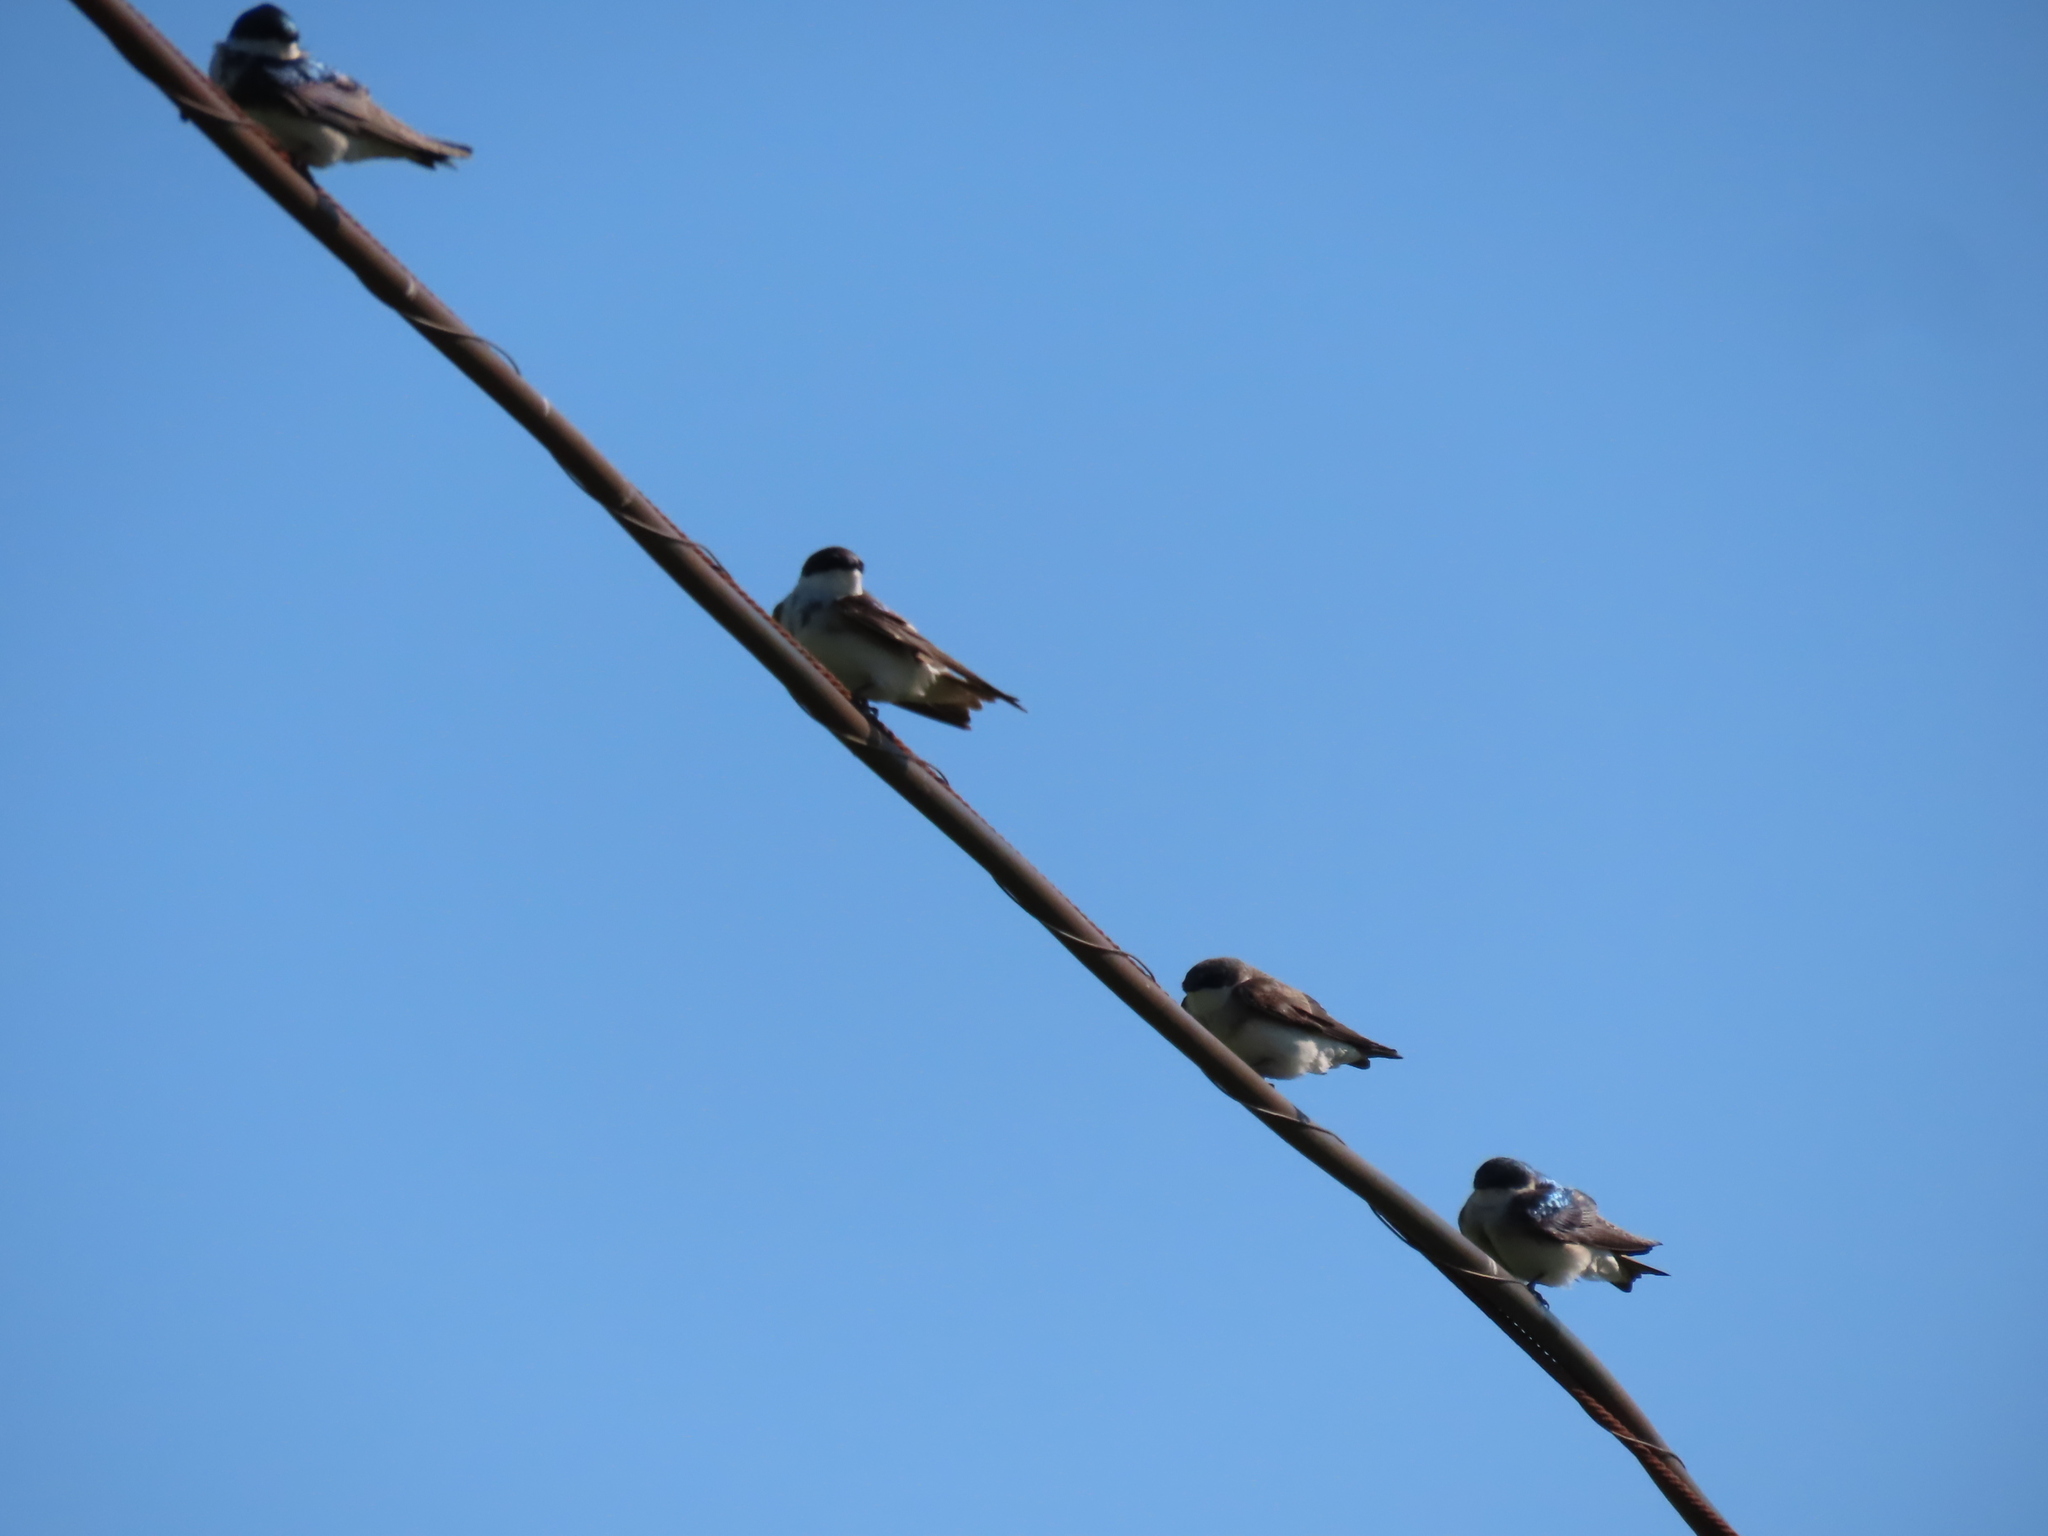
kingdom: Animalia
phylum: Chordata
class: Aves
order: Passeriformes
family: Hirundinidae
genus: Tachycineta
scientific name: Tachycineta bicolor
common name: Tree swallow
